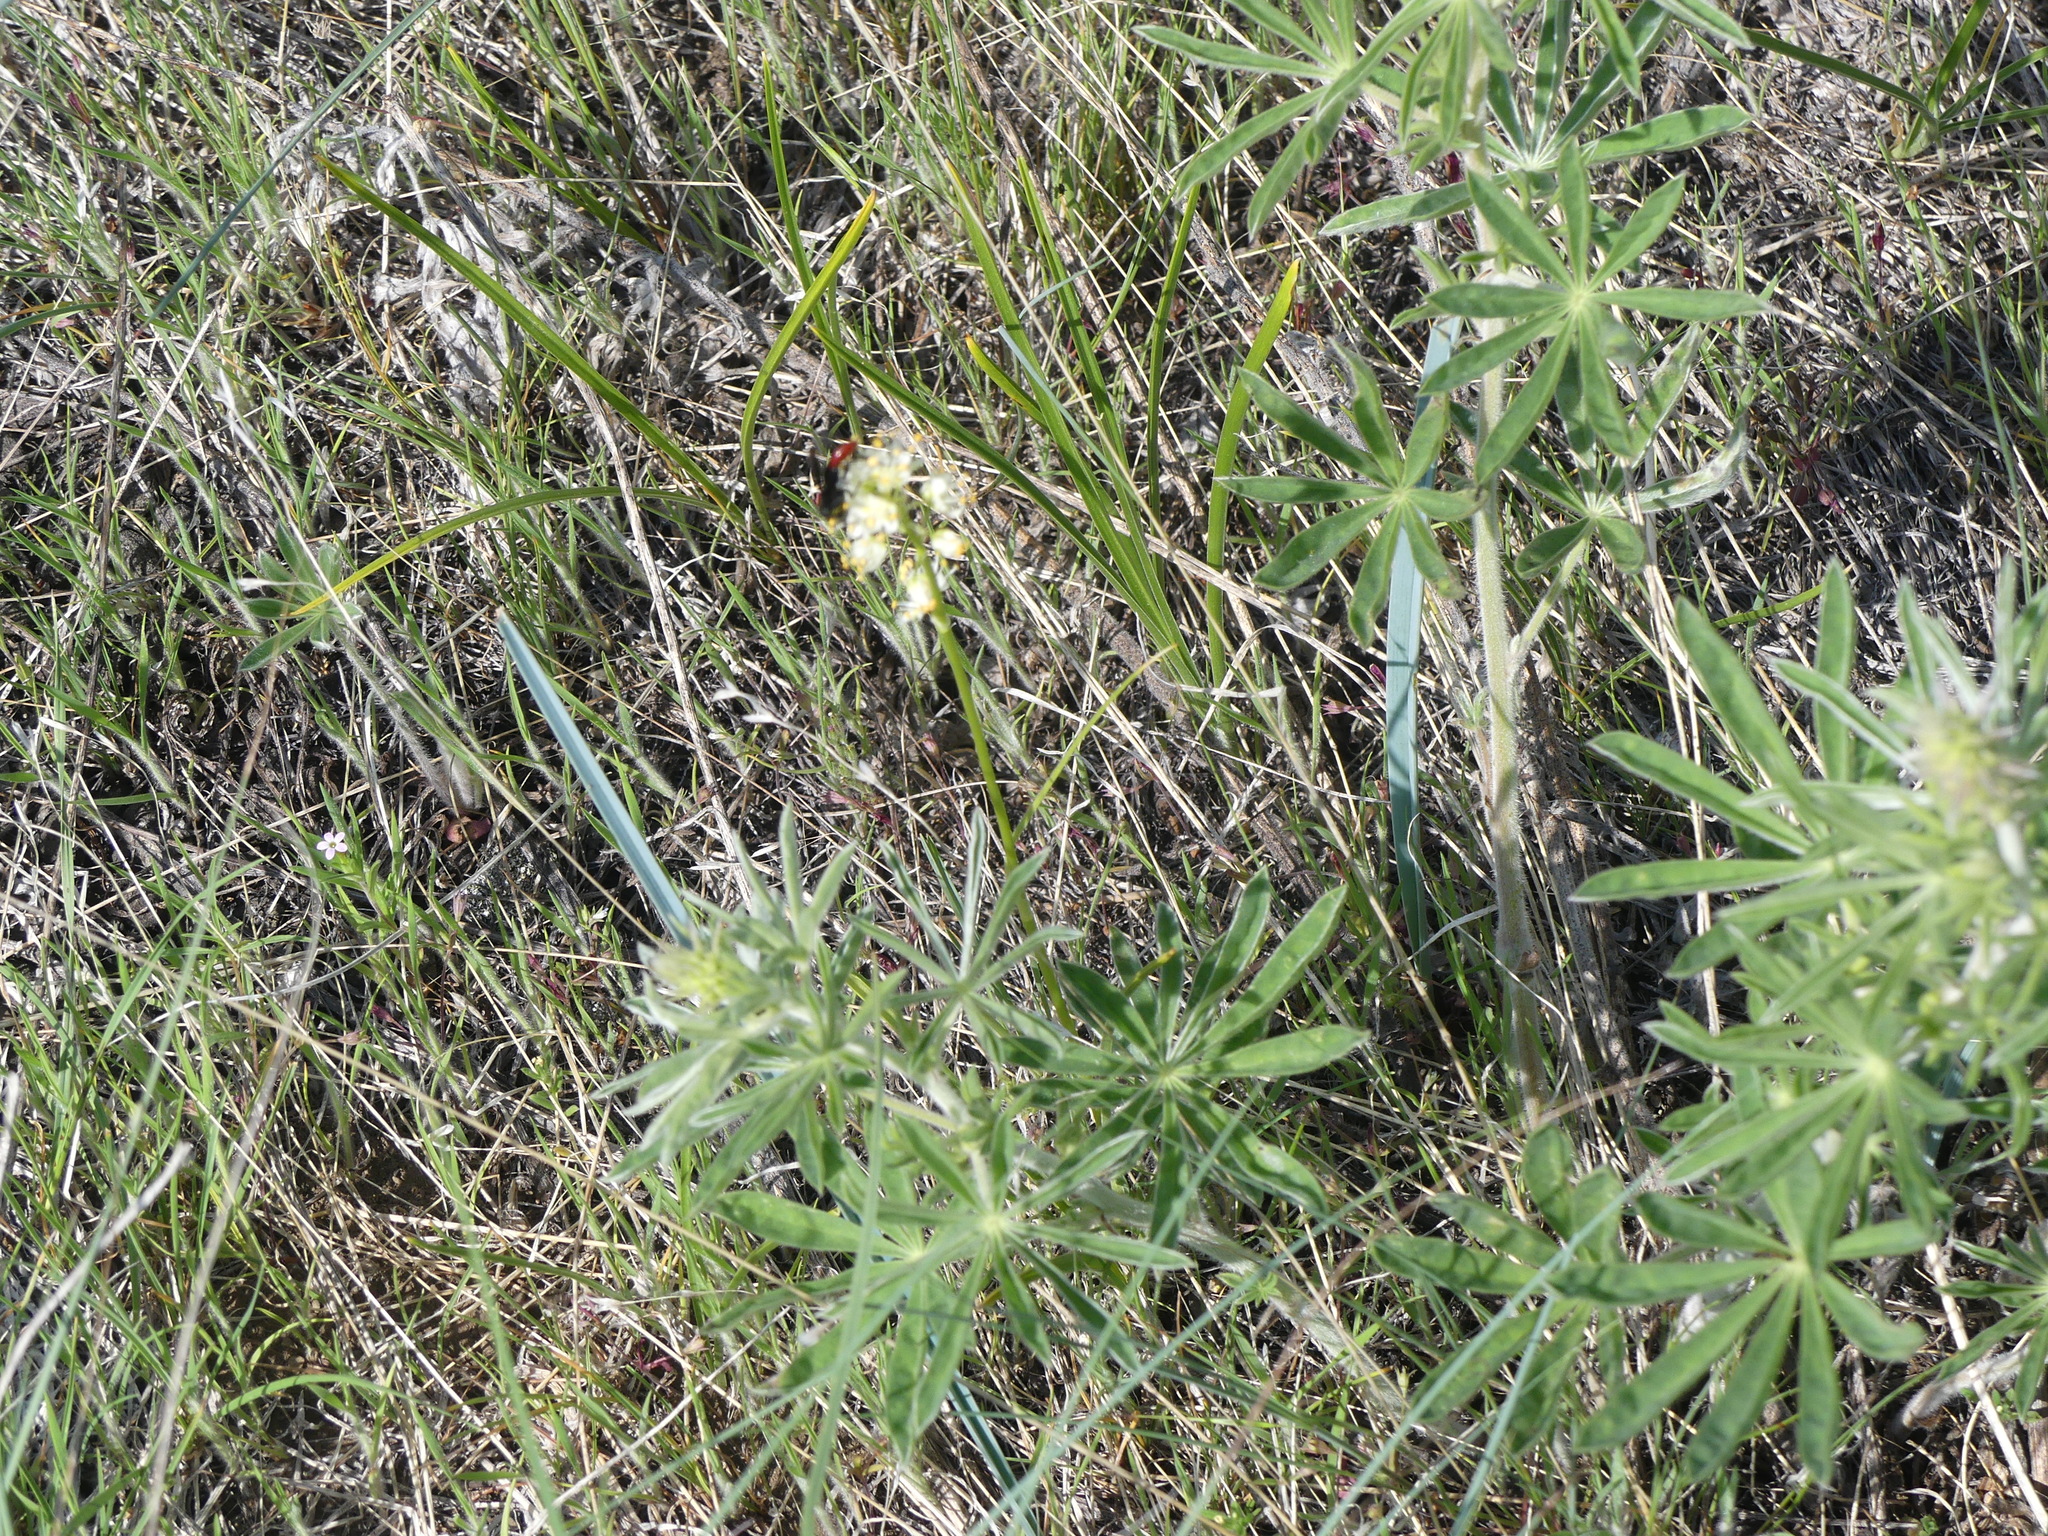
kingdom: Plantae
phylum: Tracheophyta
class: Liliopsida
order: Liliales
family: Melanthiaceae
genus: Toxicoscordion
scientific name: Toxicoscordion
